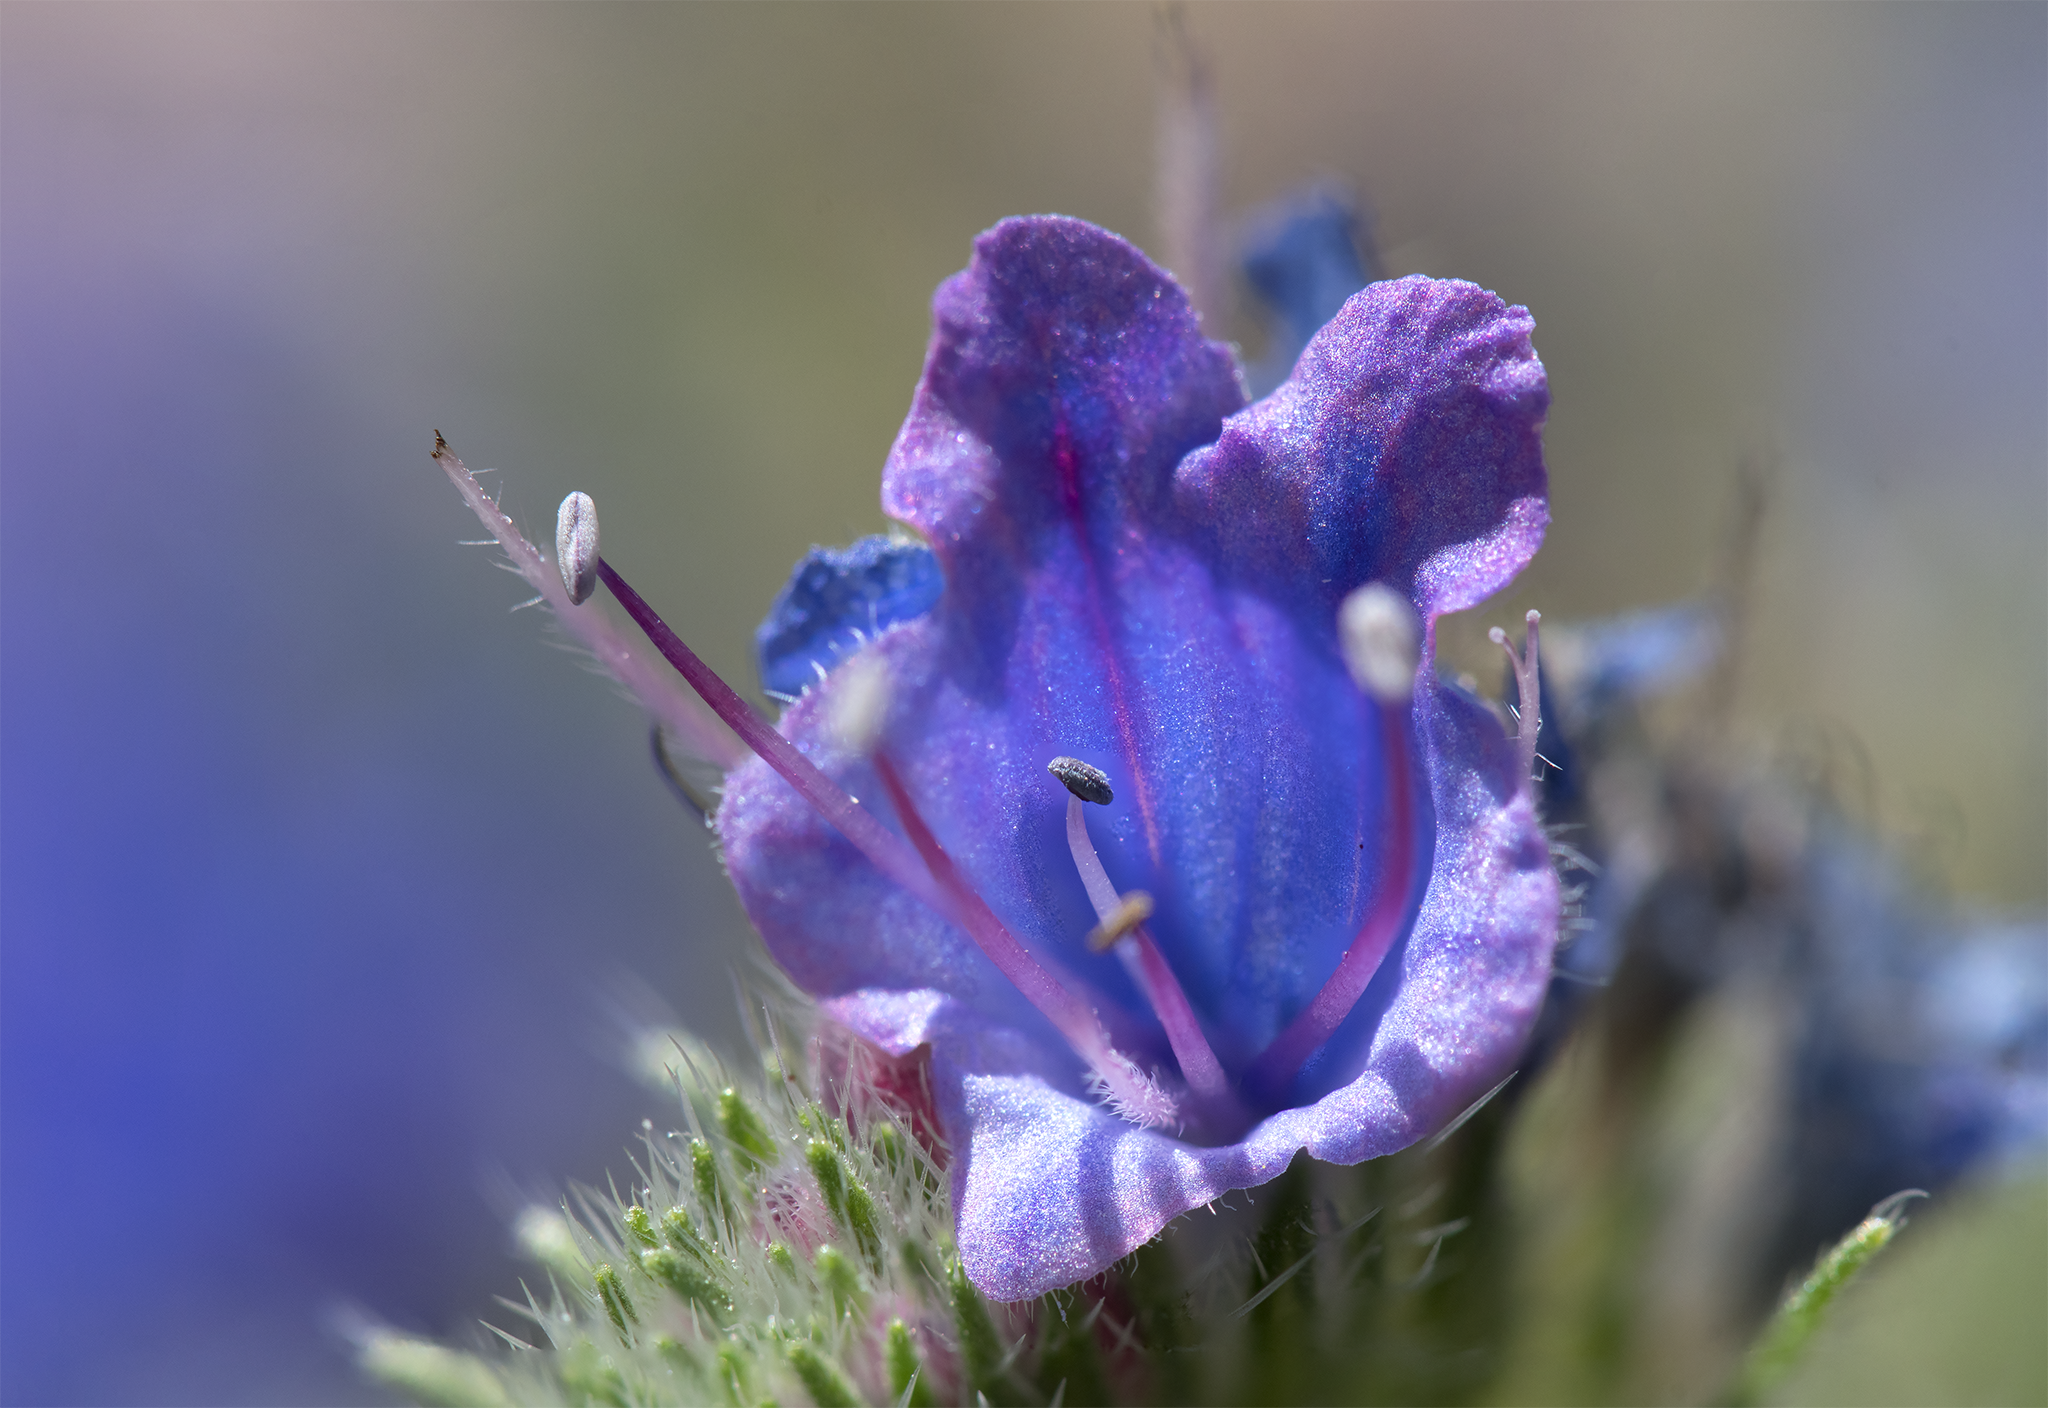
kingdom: Plantae
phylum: Tracheophyta
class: Magnoliopsida
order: Boraginales
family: Boraginaceae
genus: Echium
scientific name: Echium vulgare
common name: Common viper's bugloss
